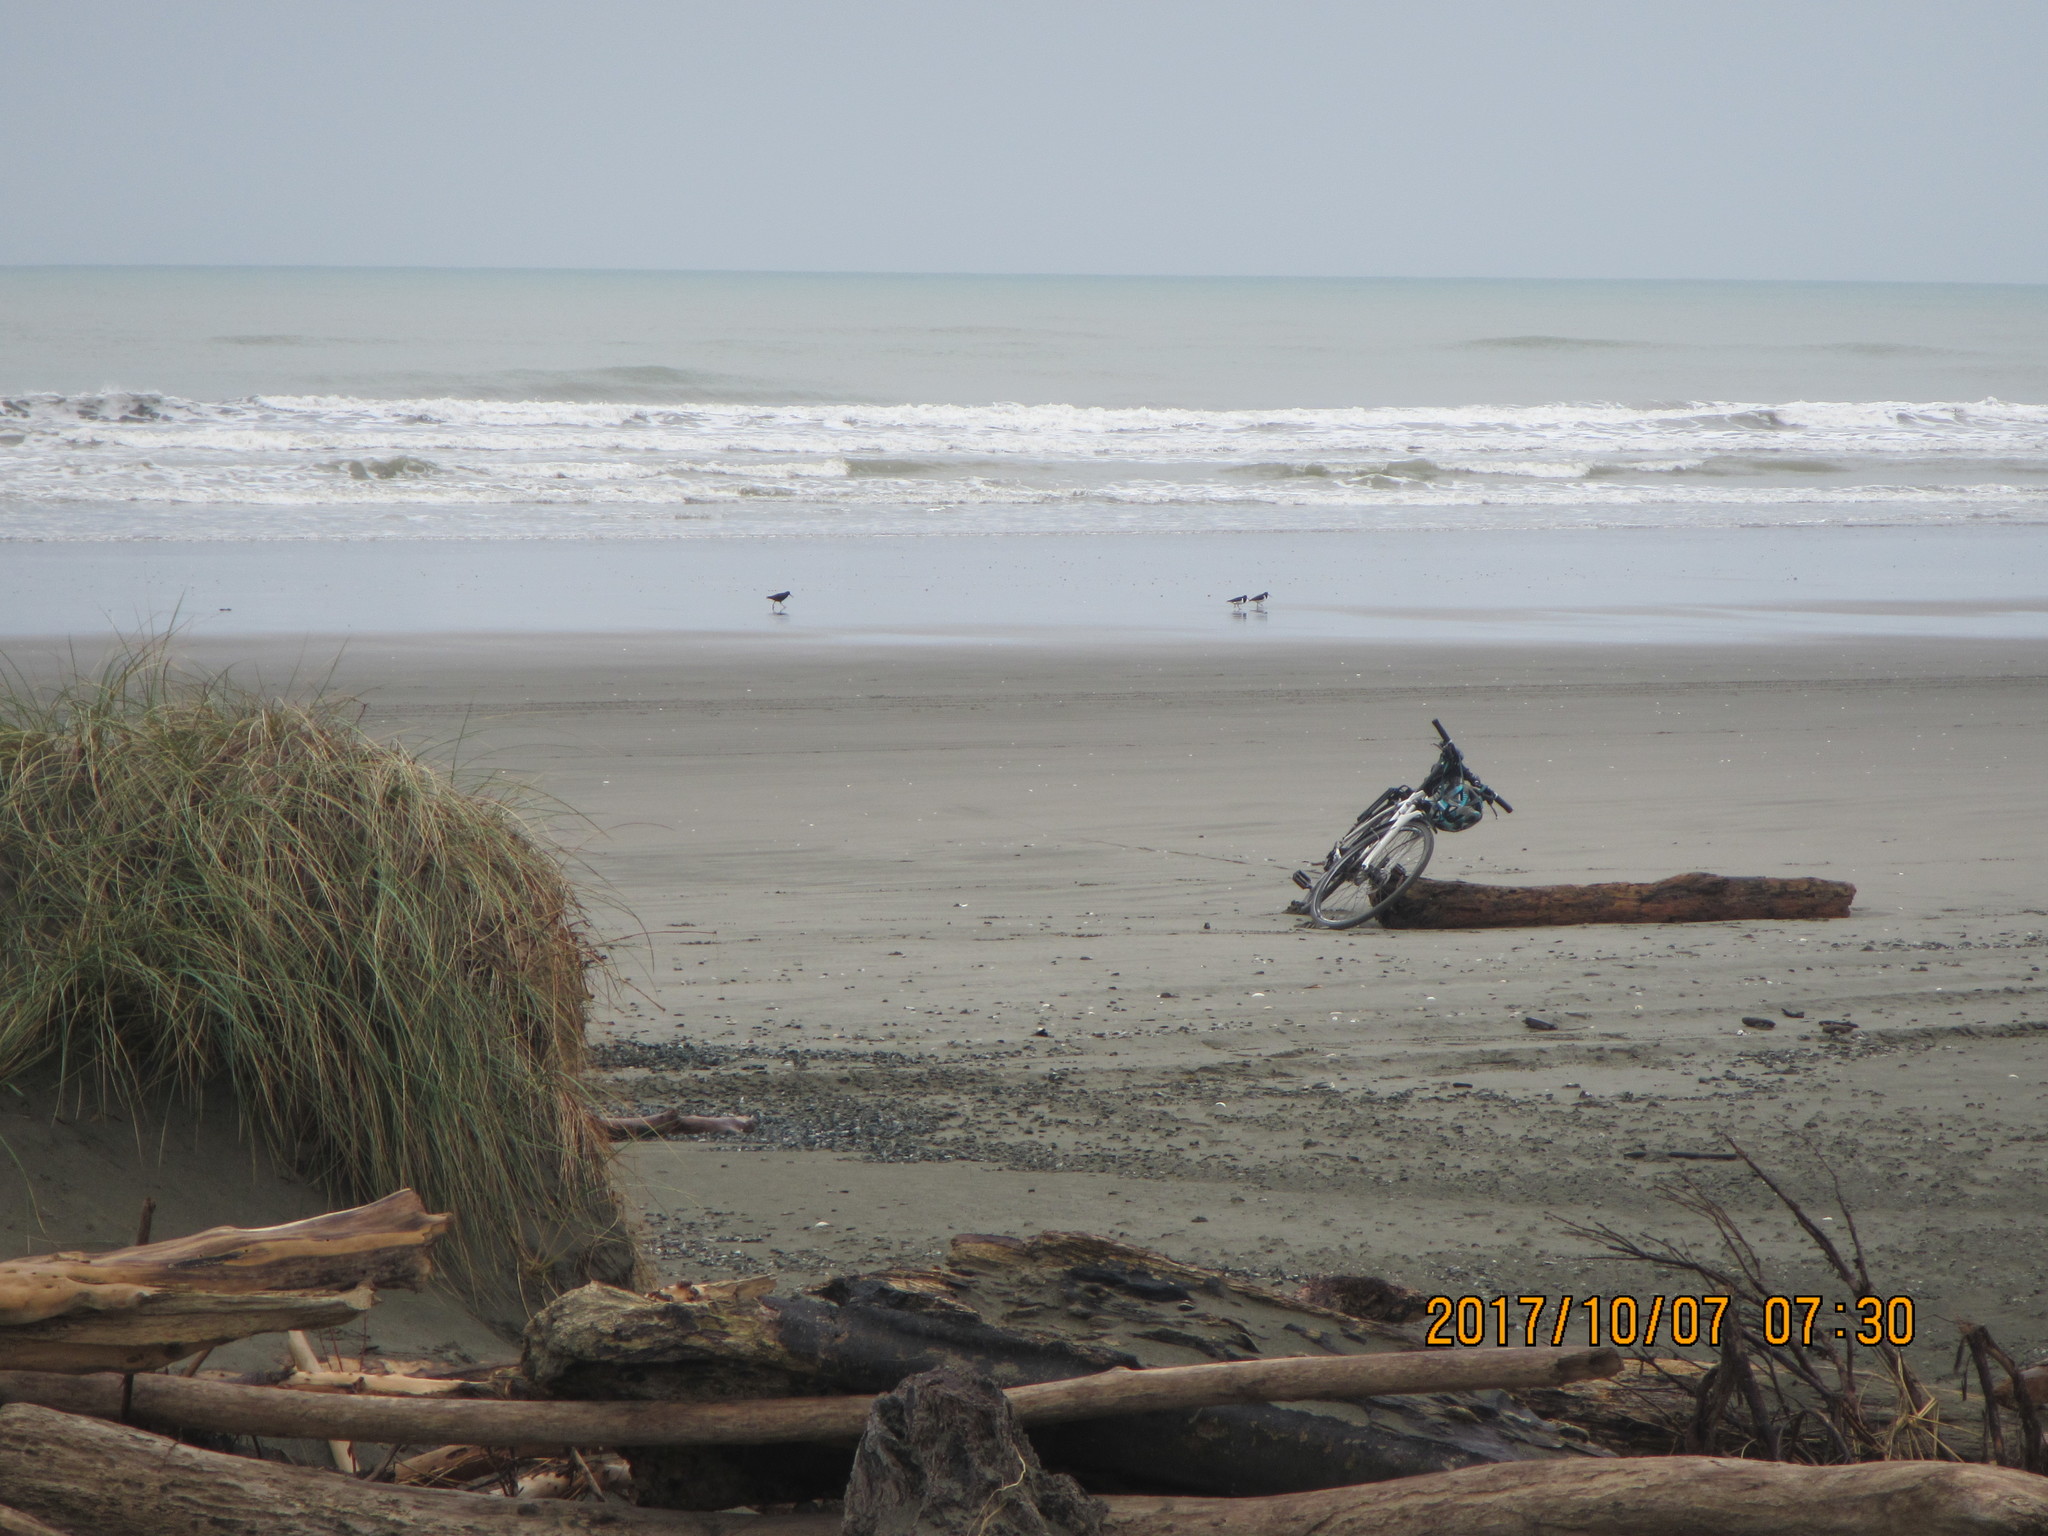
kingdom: Animalia
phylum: Chordata
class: Aves
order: Charadriiformes
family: Haematopodidae
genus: Haematopus
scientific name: Haematopus finschi
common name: South island oystercatcher
